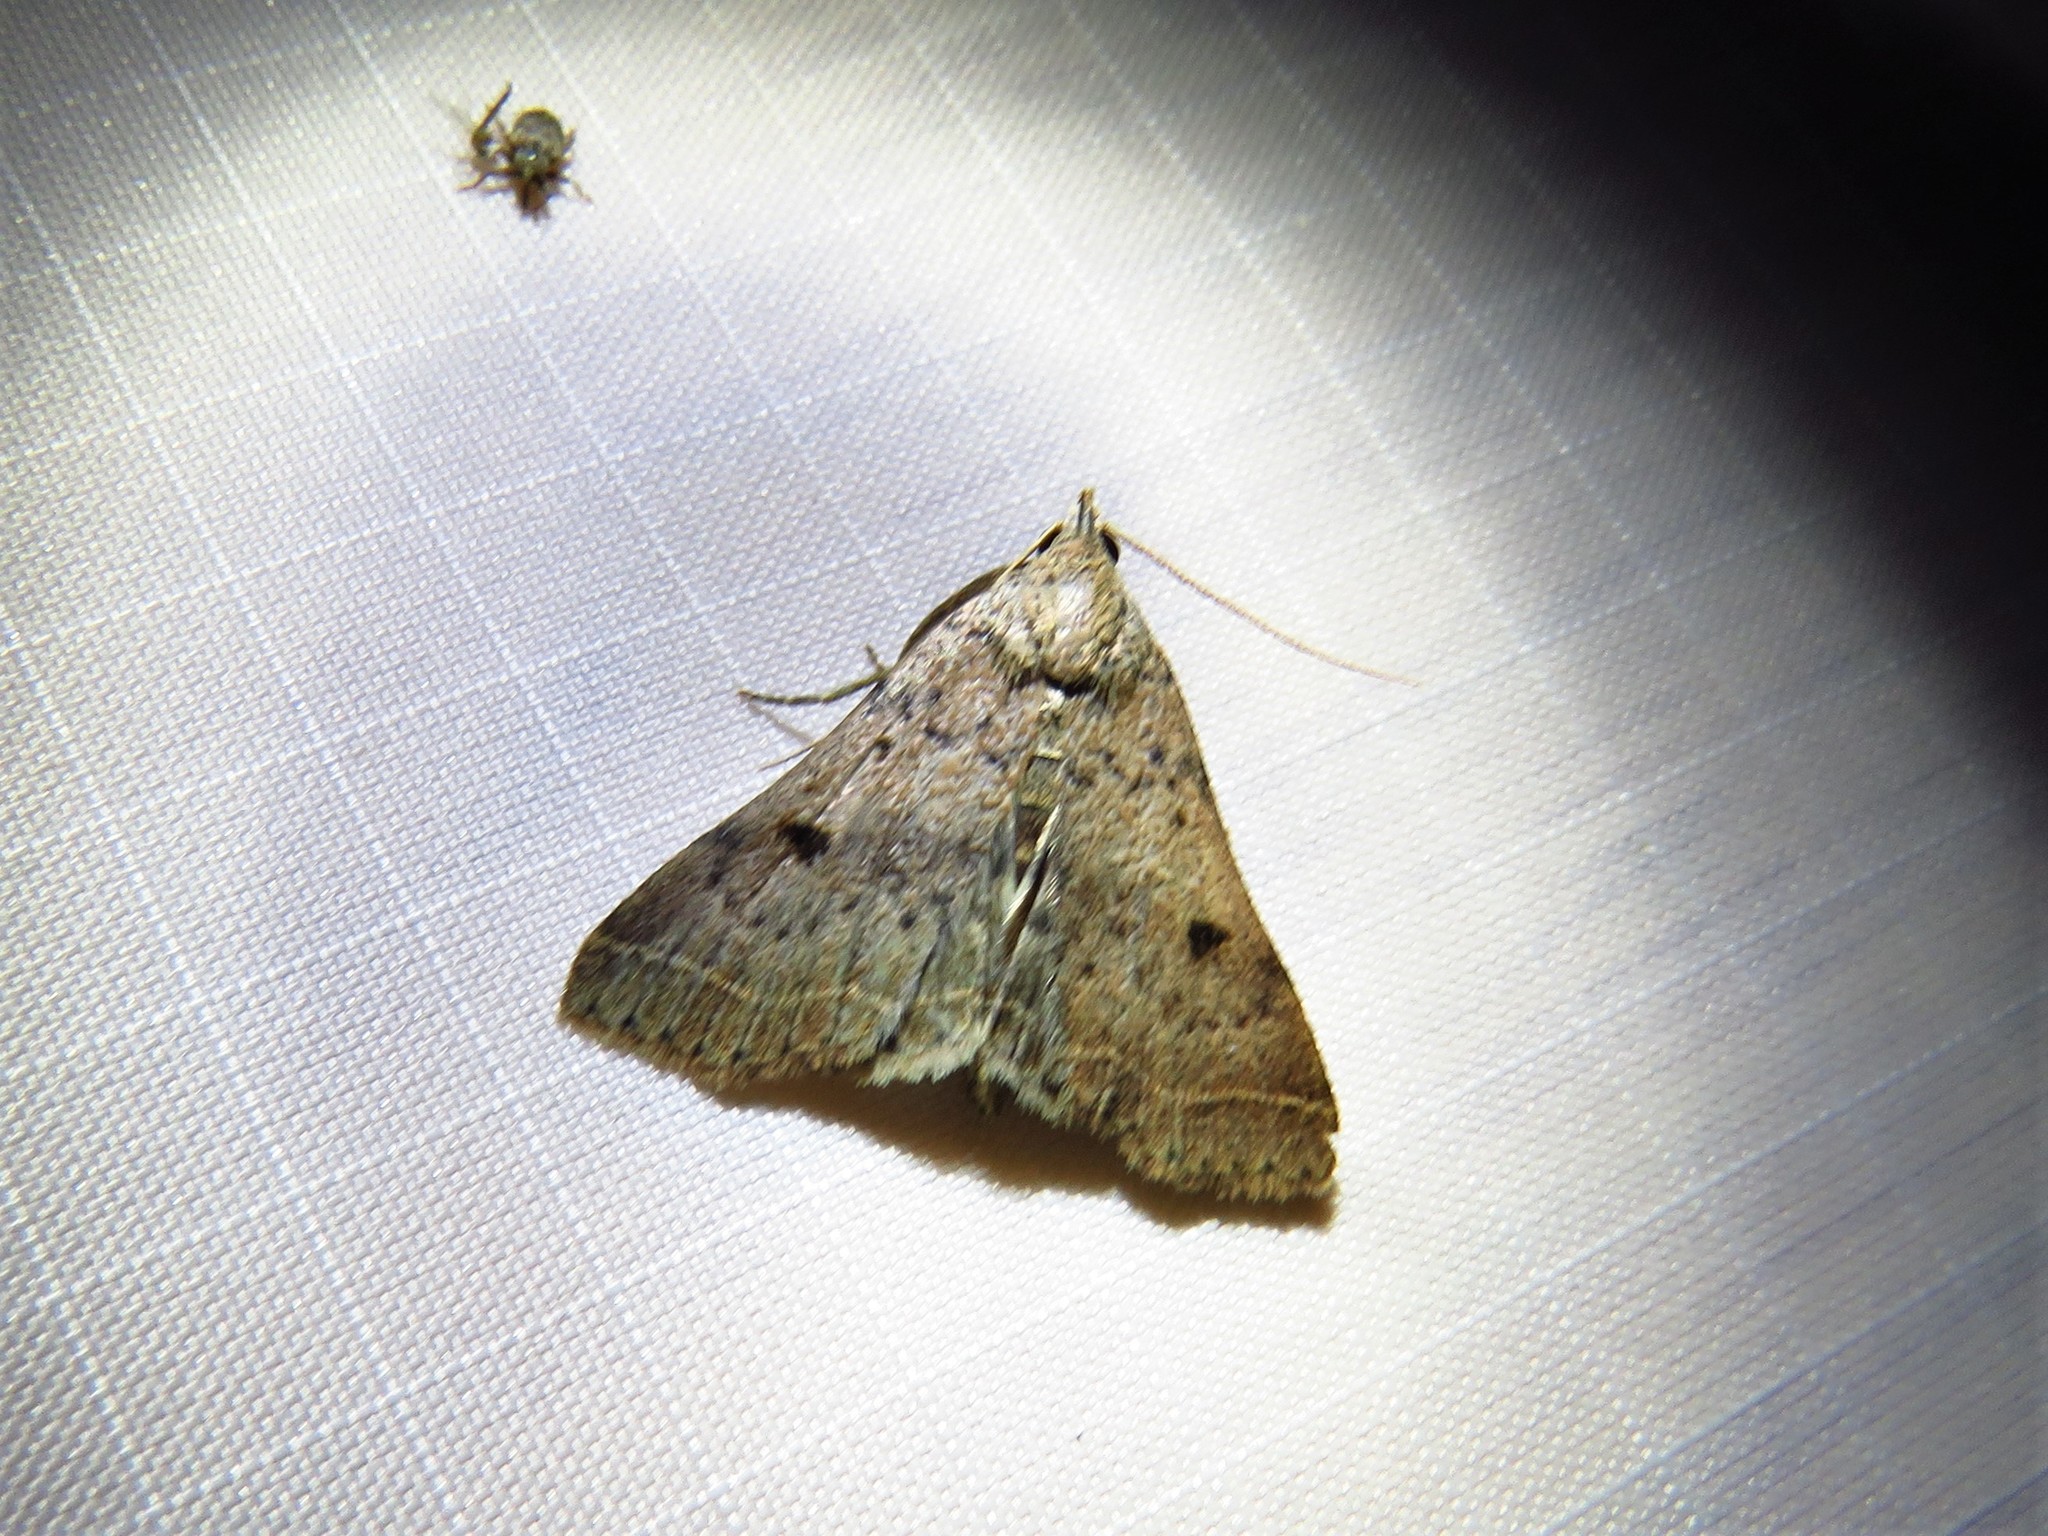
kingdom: Animalia
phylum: Arthropoda
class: Insecta
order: Lepidoptera
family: Erebidae
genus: Bleptina
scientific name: Bleptina caradrinalis
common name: Bent-winged owlet
